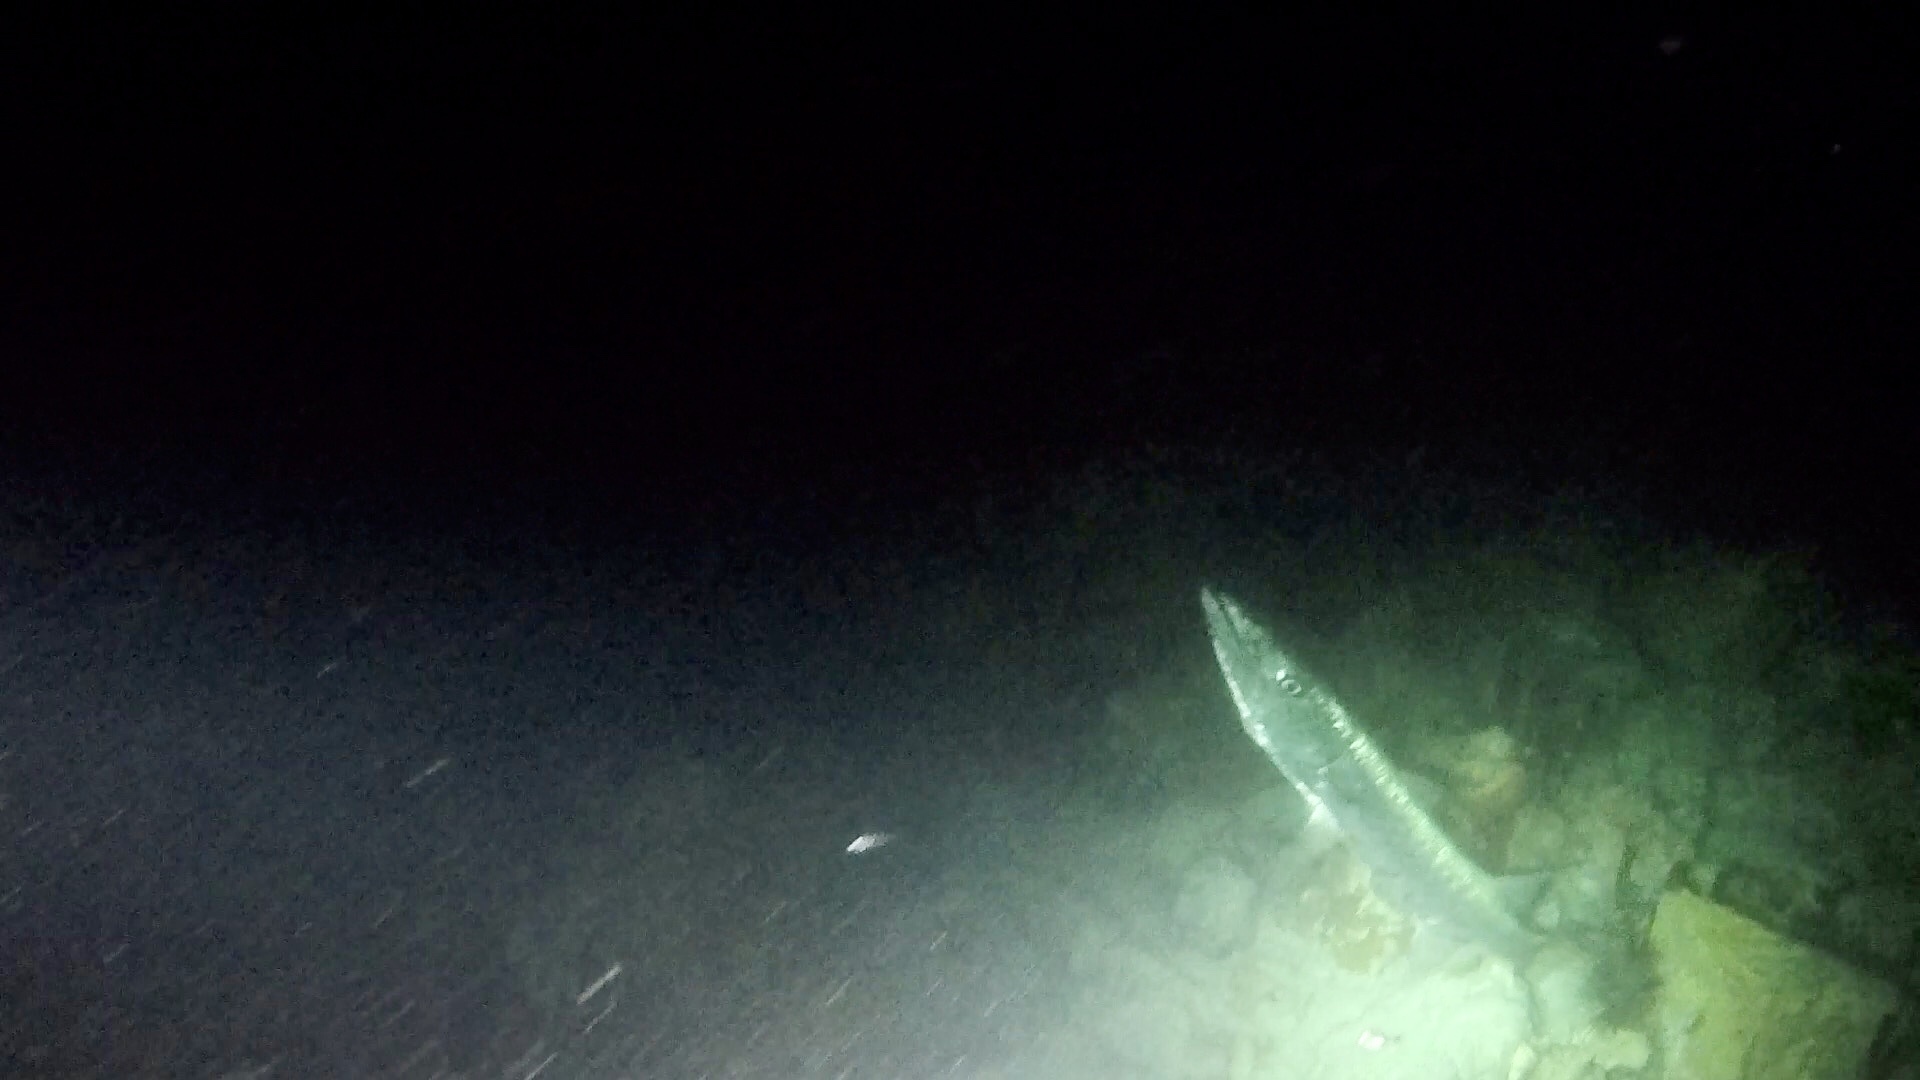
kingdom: Animalia
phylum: Chordata
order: Perciformes
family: Sphyraenidae
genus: Sphyraena
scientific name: Sphyraena barracuda
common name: Great barracuda
